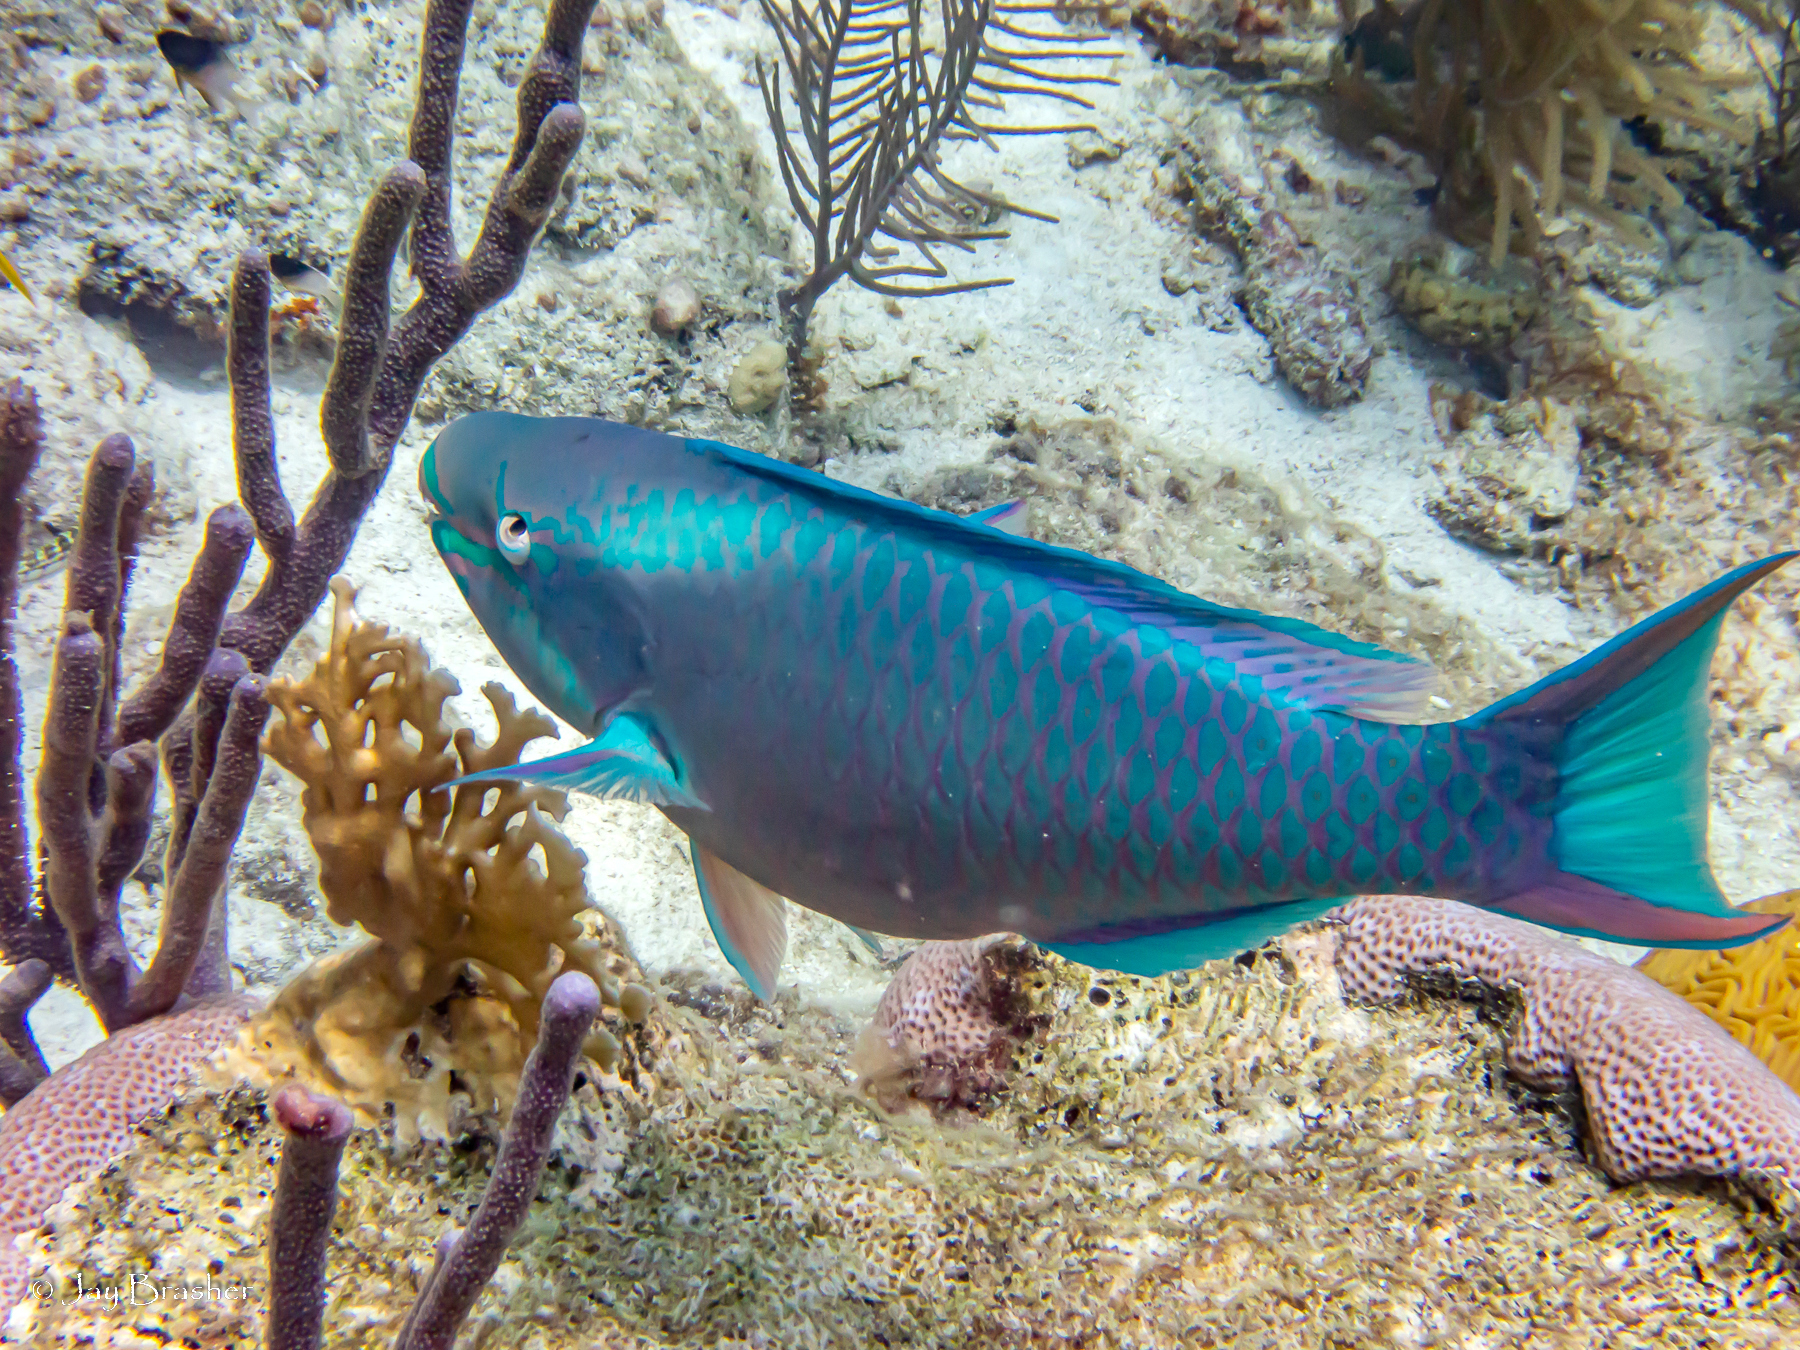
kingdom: Animalia
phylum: Chordata
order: Perciformes
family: Scaridae
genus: Scarus
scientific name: Scarus vetula
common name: Queen parrotfish
